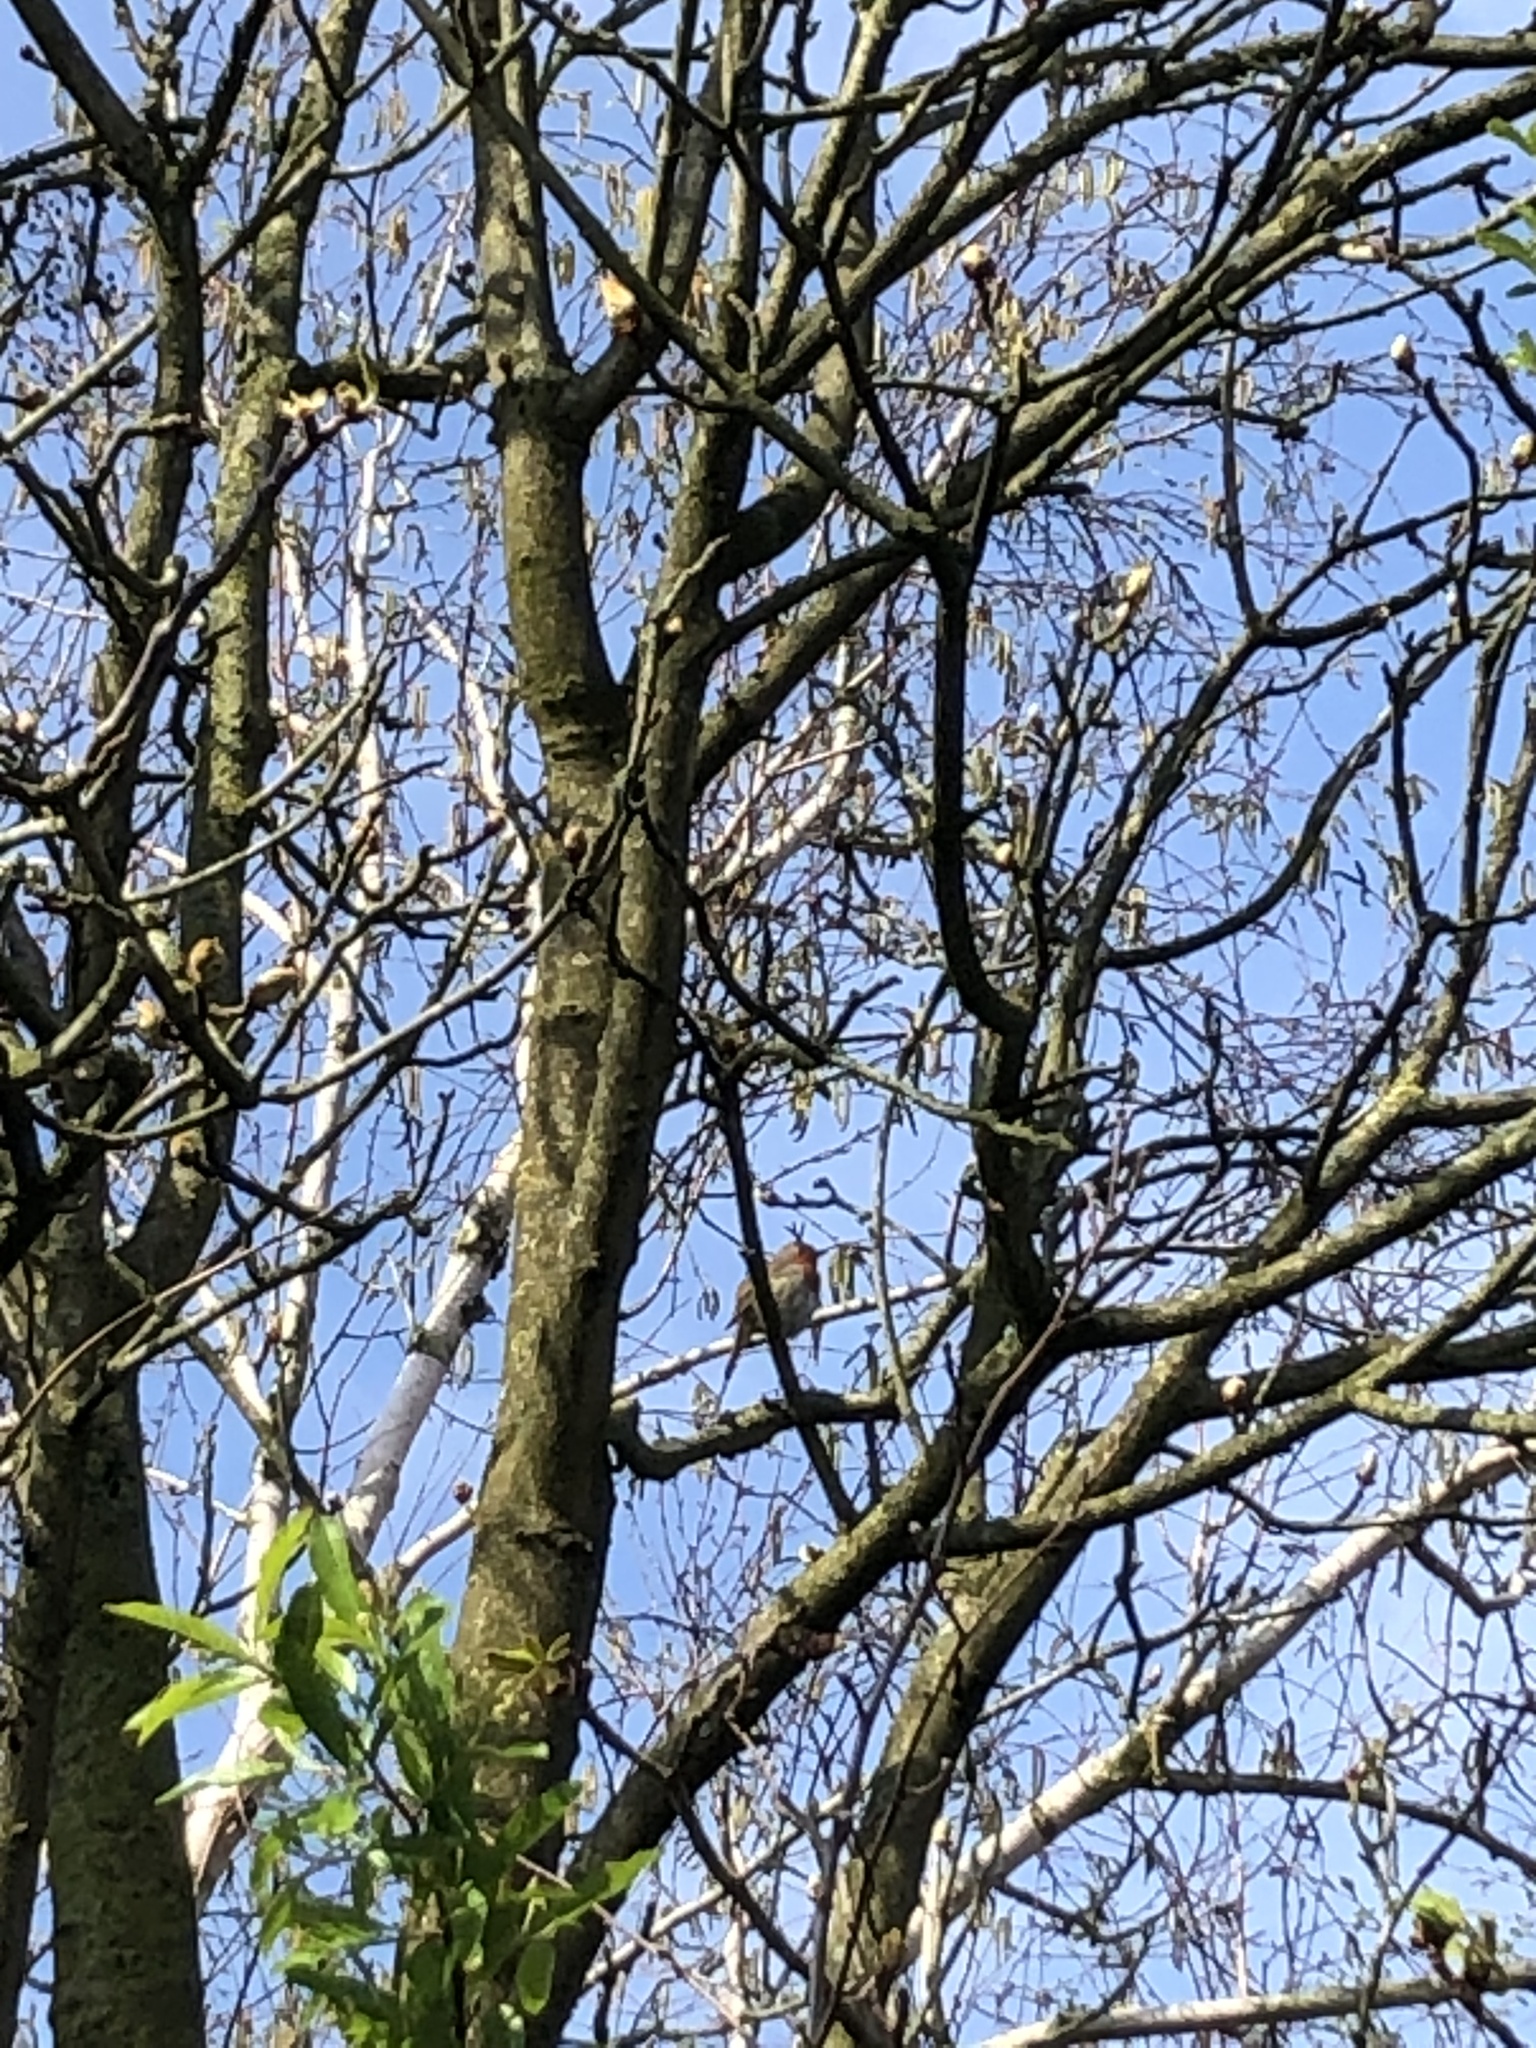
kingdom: Animalia
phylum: Chordata
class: Aves
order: Passeriformes
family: Muscicapidae
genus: Erithacus
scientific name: Erithacus rubecula
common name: European robin
